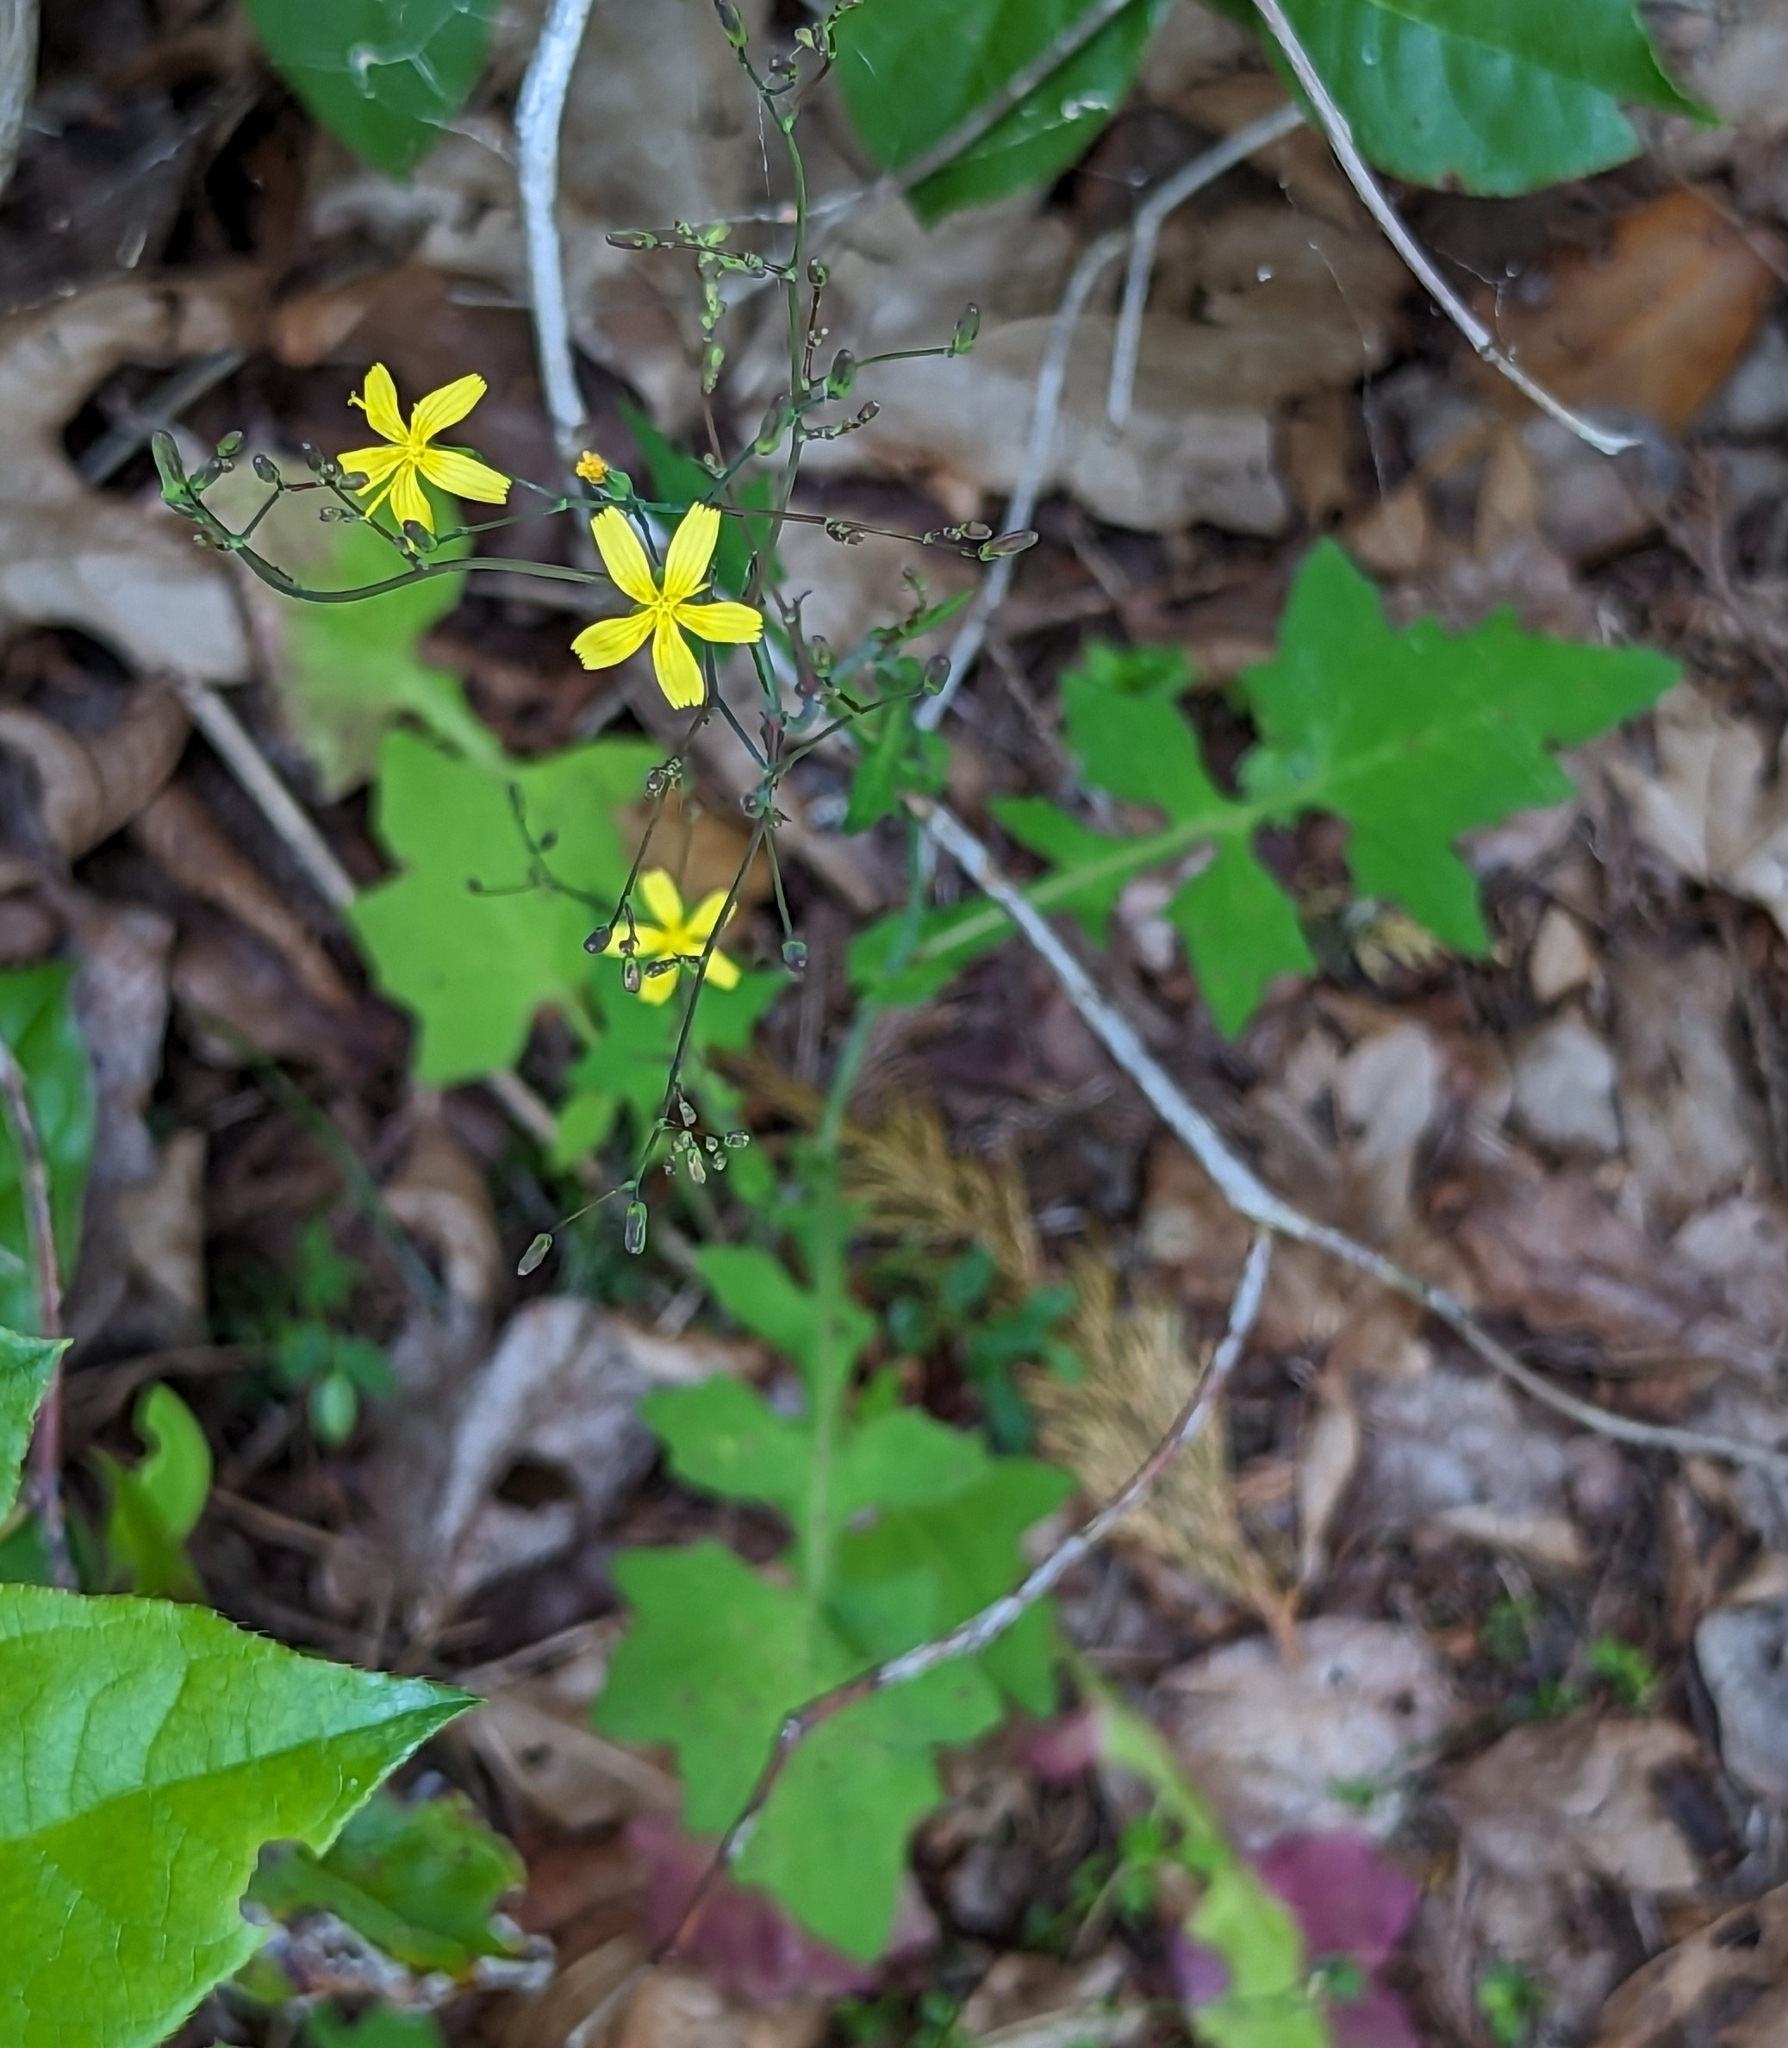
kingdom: Plantae
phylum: Tracheophyta
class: Magnoliopsida
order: Asterales
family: Asteraceae
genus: Mycelis
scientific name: Mycelis muralis
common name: Wall lettuce
